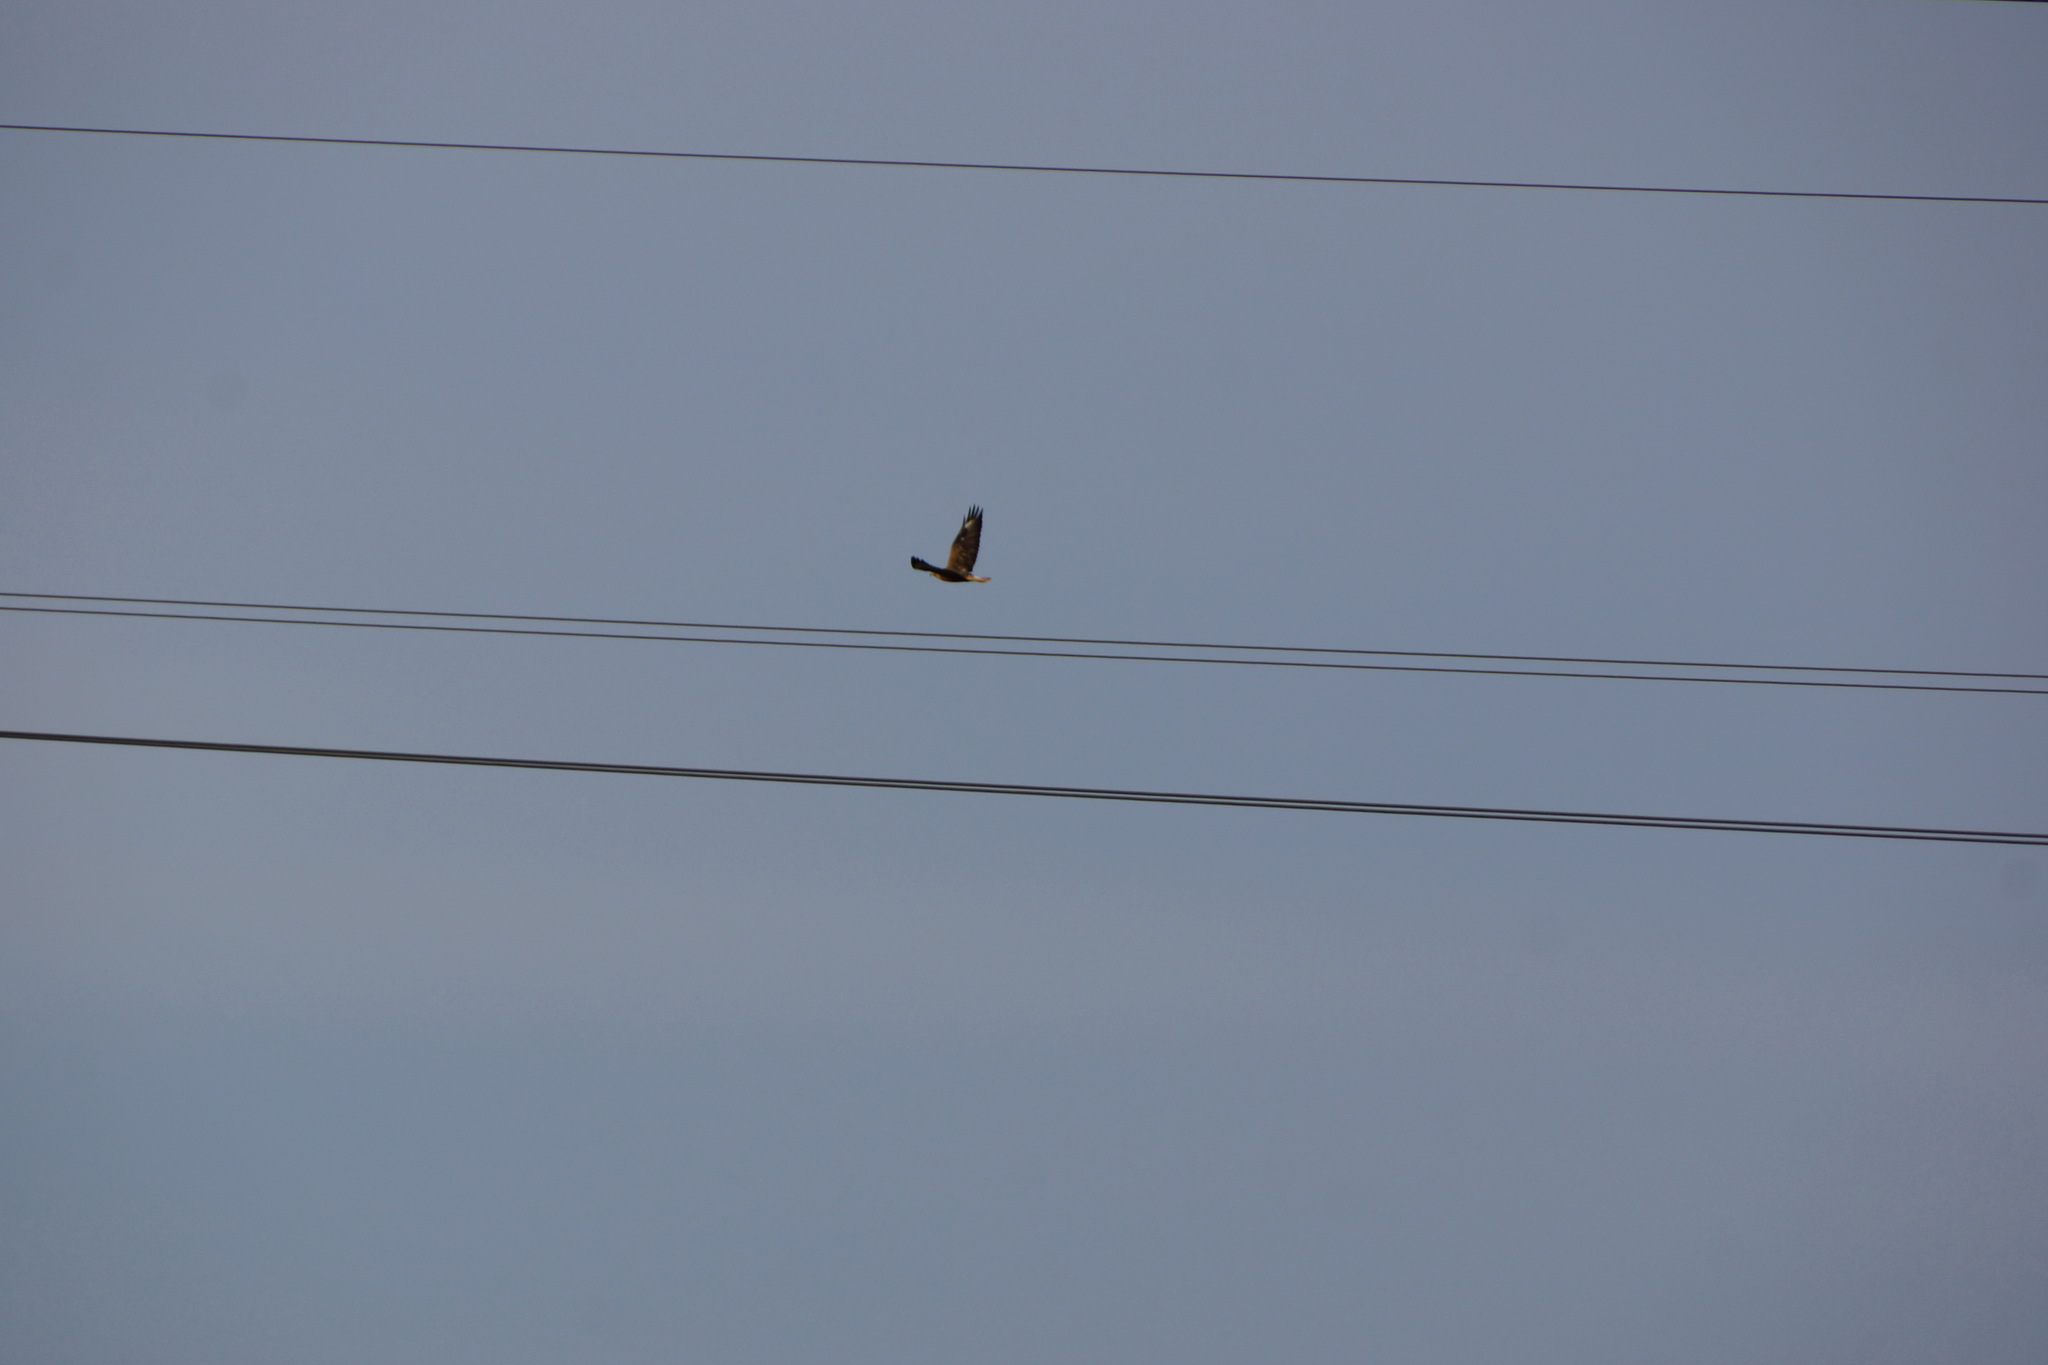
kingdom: Animalia
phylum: Chordata
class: Aves
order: Accipitriformes
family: Accipitridae
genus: Buteo
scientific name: Buteo rufinus
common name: Long-legged buzzard
